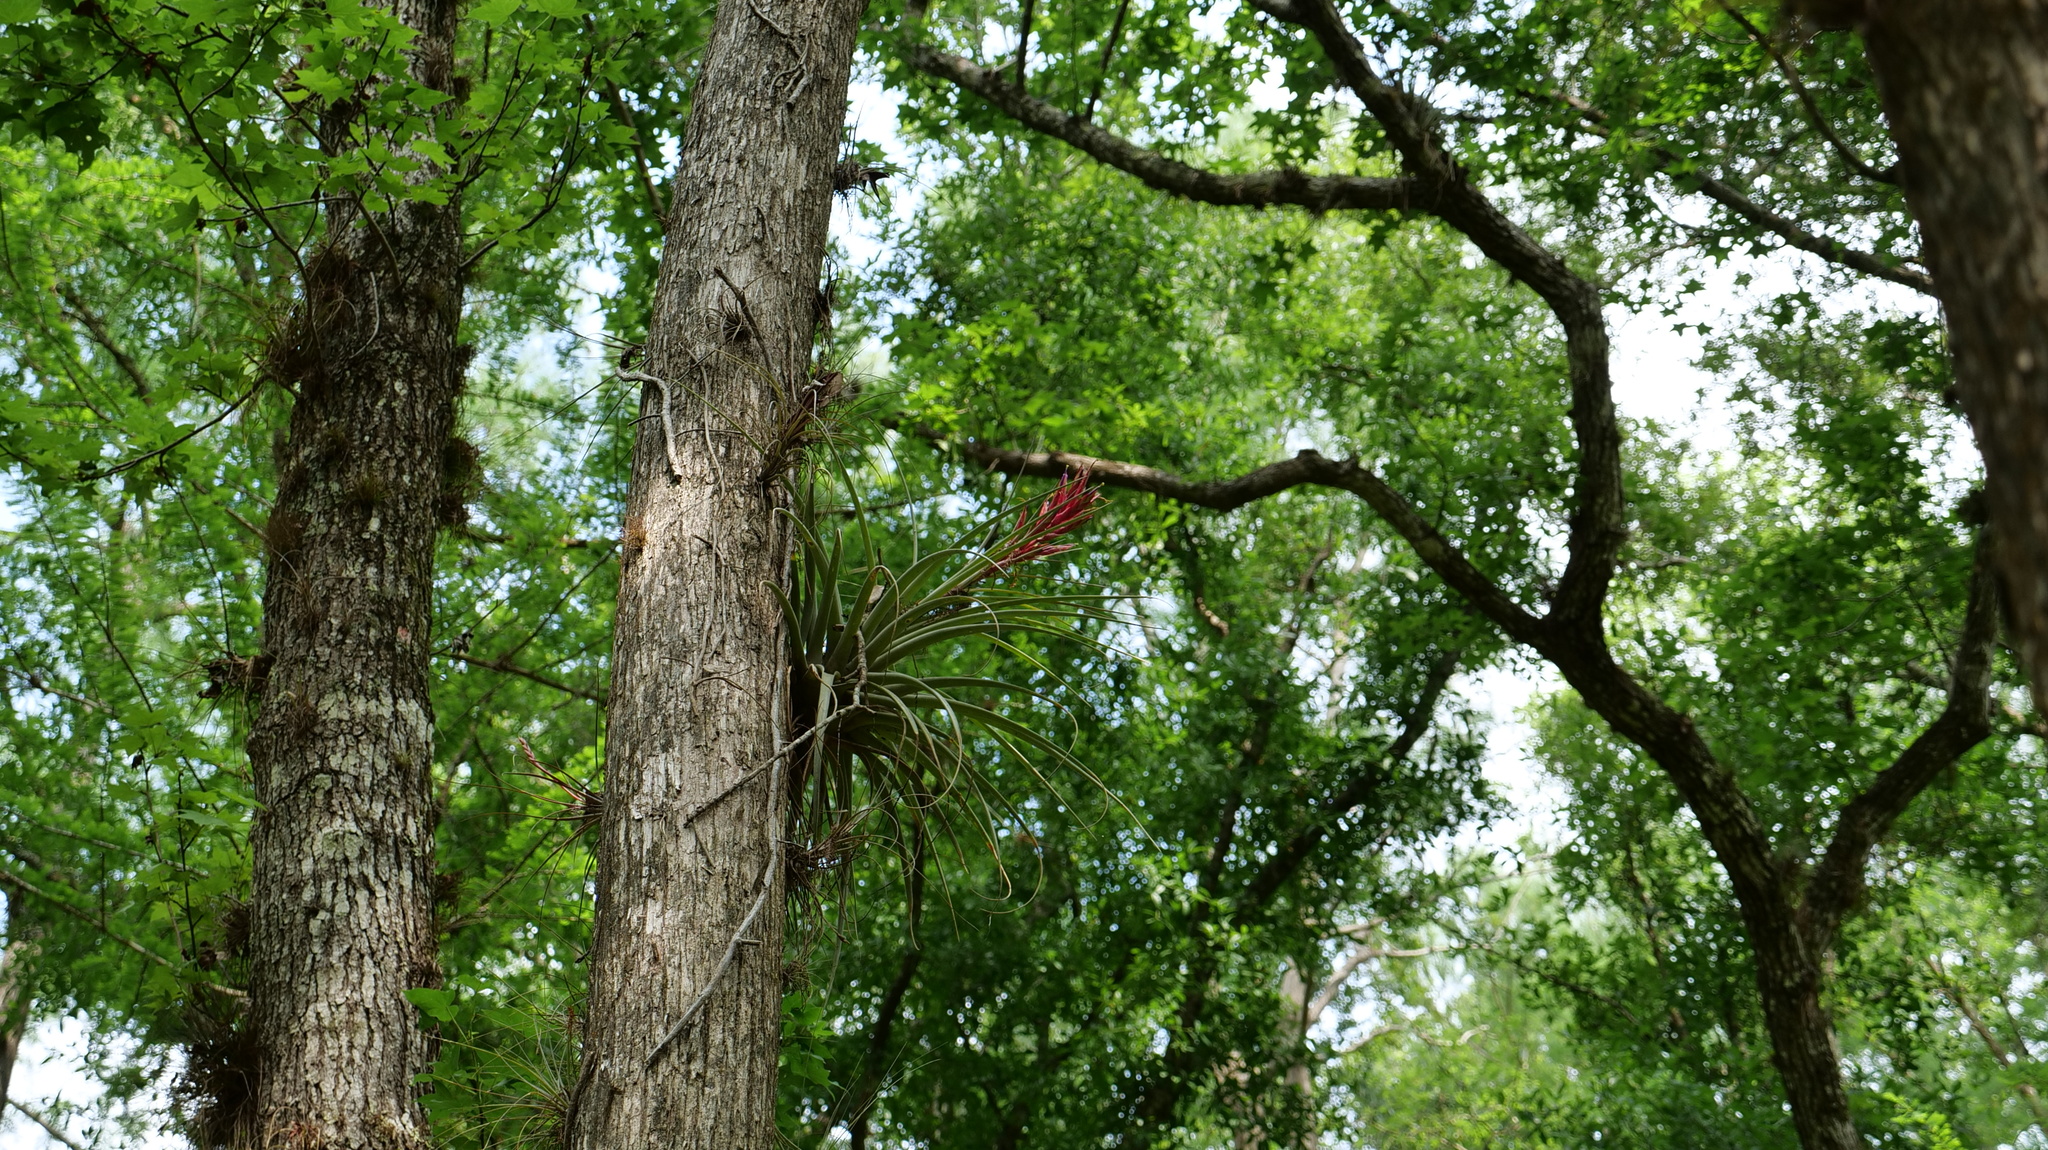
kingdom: Plantae
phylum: Tracheophyta
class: Liliopsida
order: Poales
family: Bromeliaceae
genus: Tillandsia
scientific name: Tillandsia fasciculata
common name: Giant airplant
